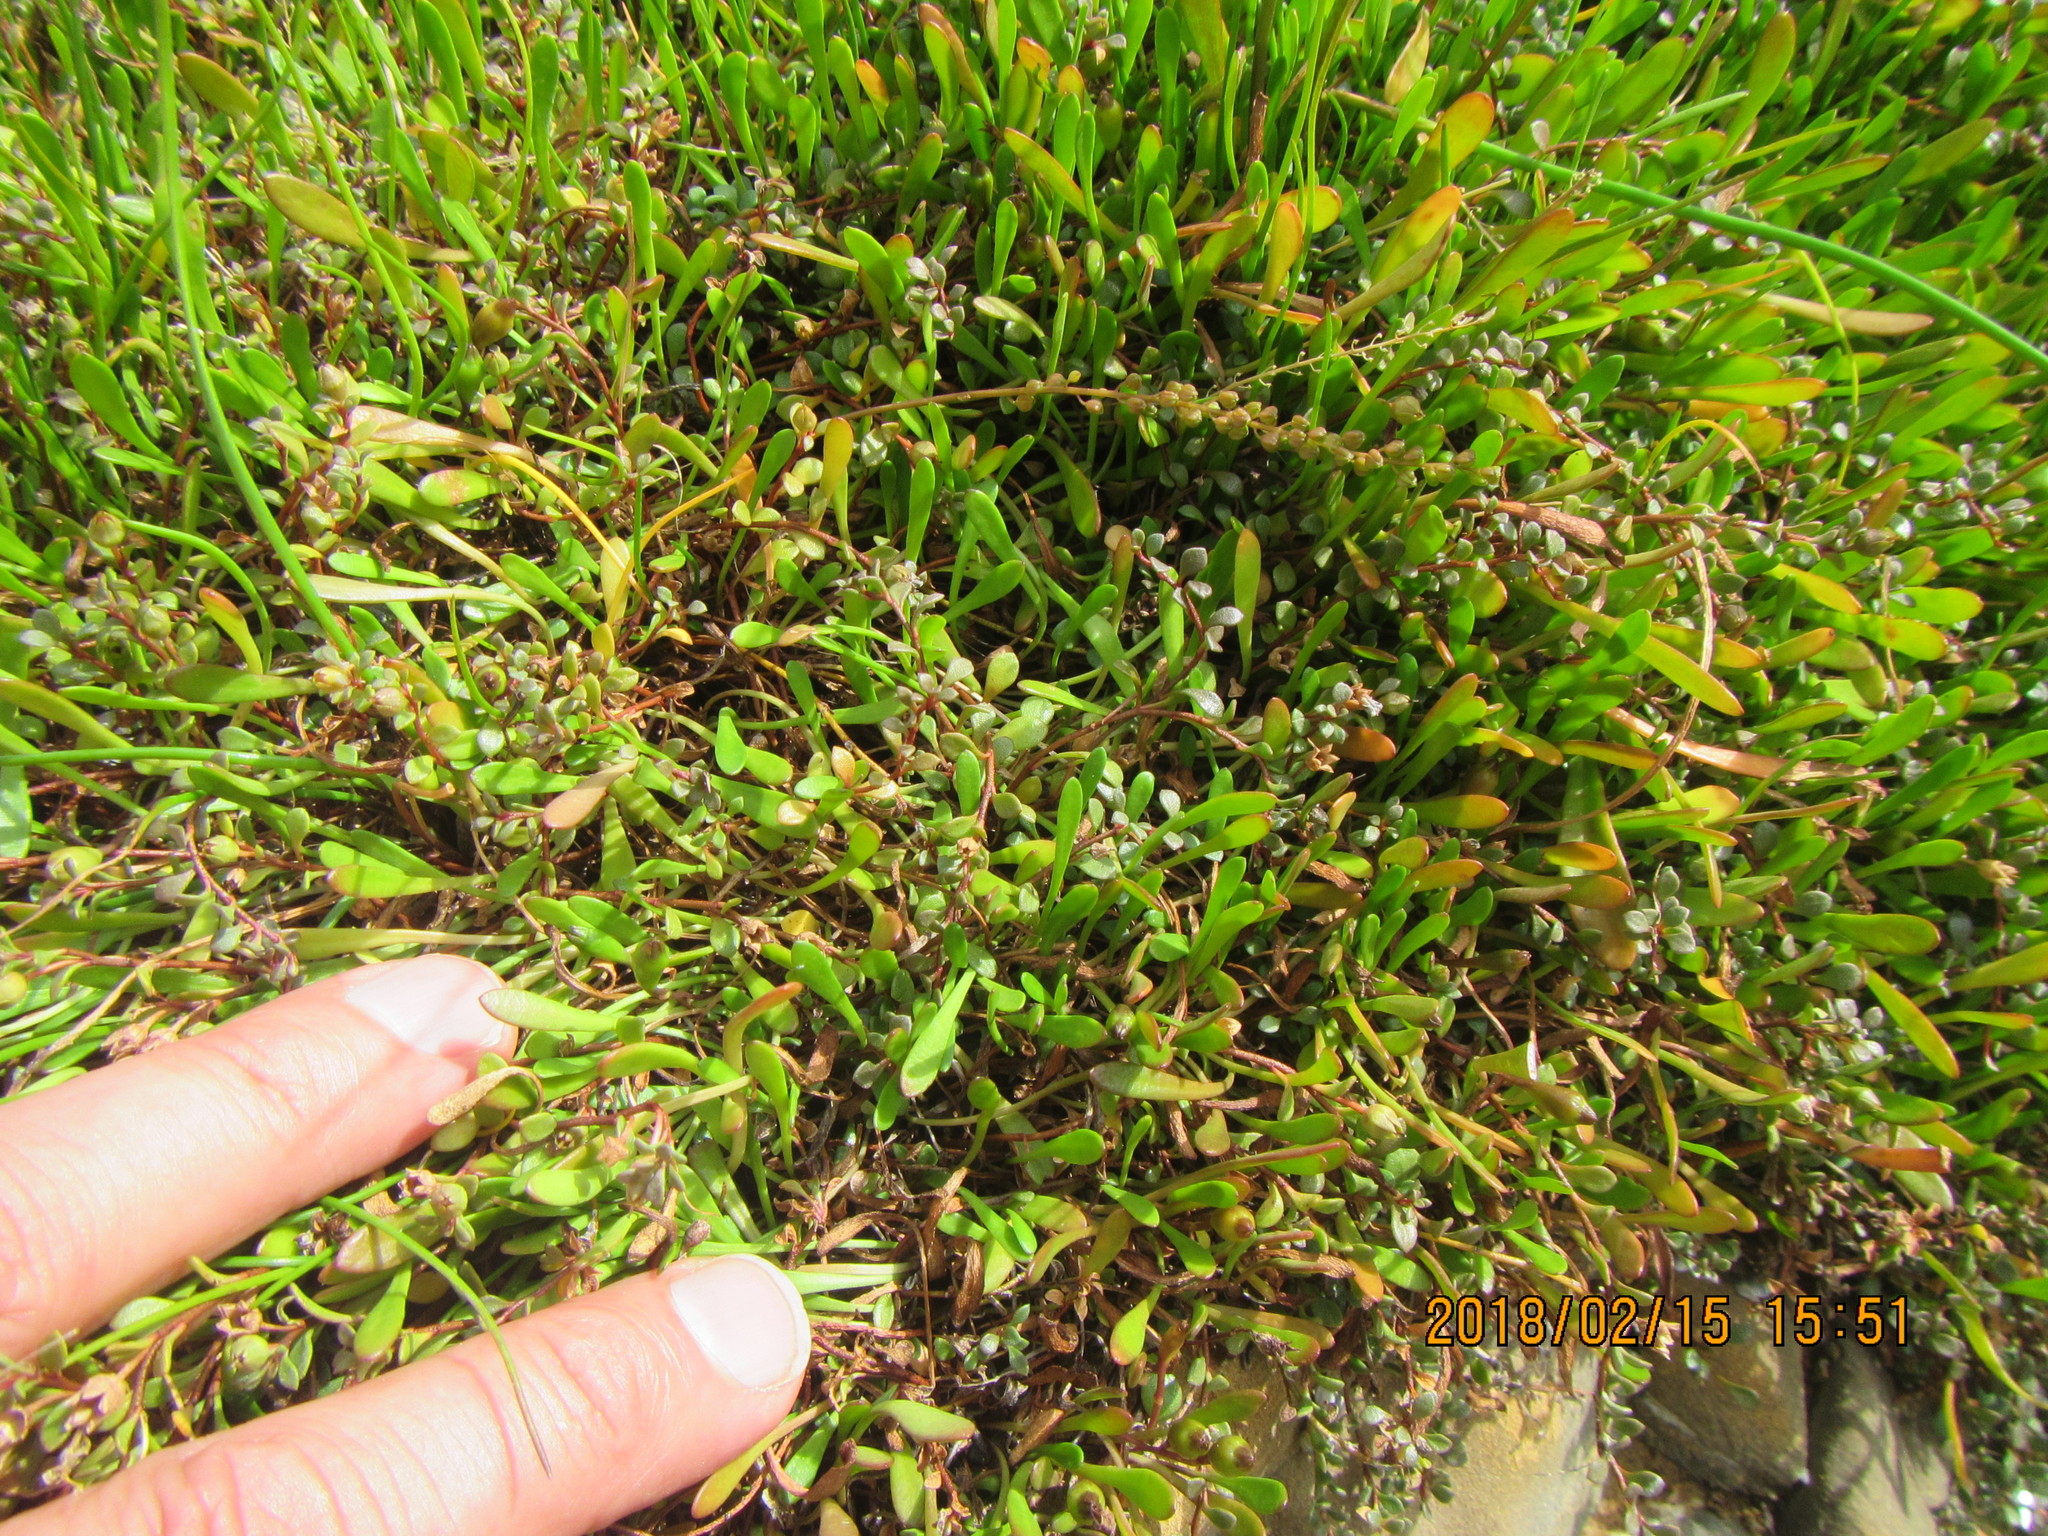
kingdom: Plantae
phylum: Tracheophyta
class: Magnoliopsida
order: Asterales
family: Goodeniaceae
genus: Goodenia
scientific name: Goodenia radicans
